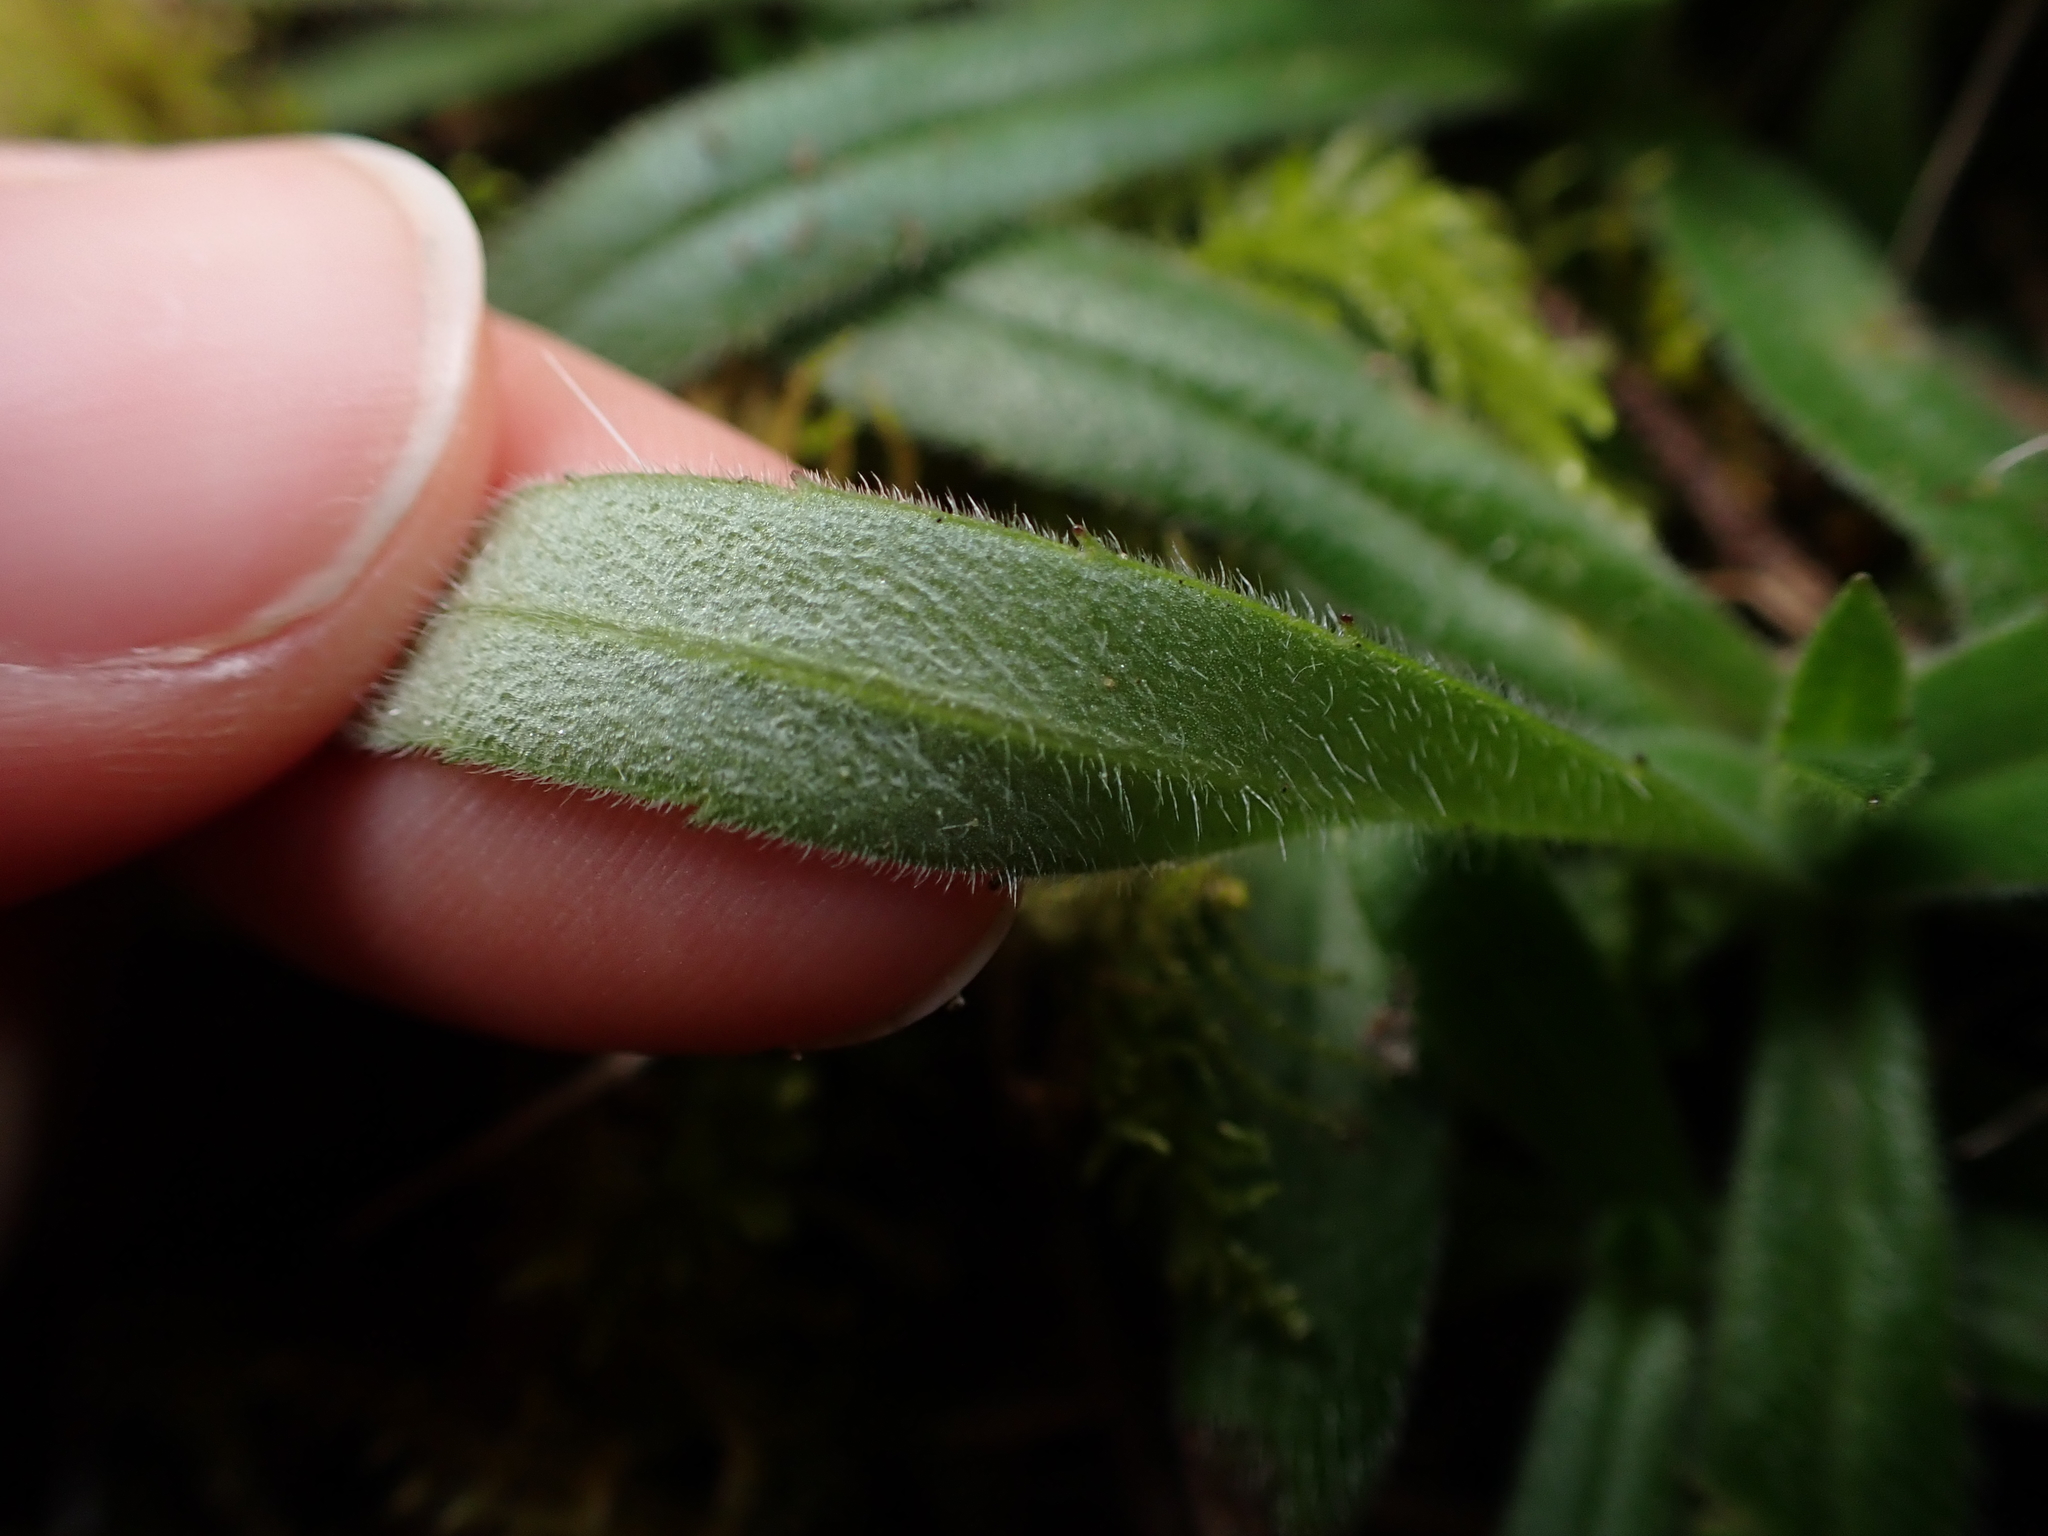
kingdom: Plantae
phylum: Tracheophyta
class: Magnoliopsida
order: Asterales
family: Asteraceae
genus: Anisocarpus
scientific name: Anisocarpus madioides
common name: Woodland madia
